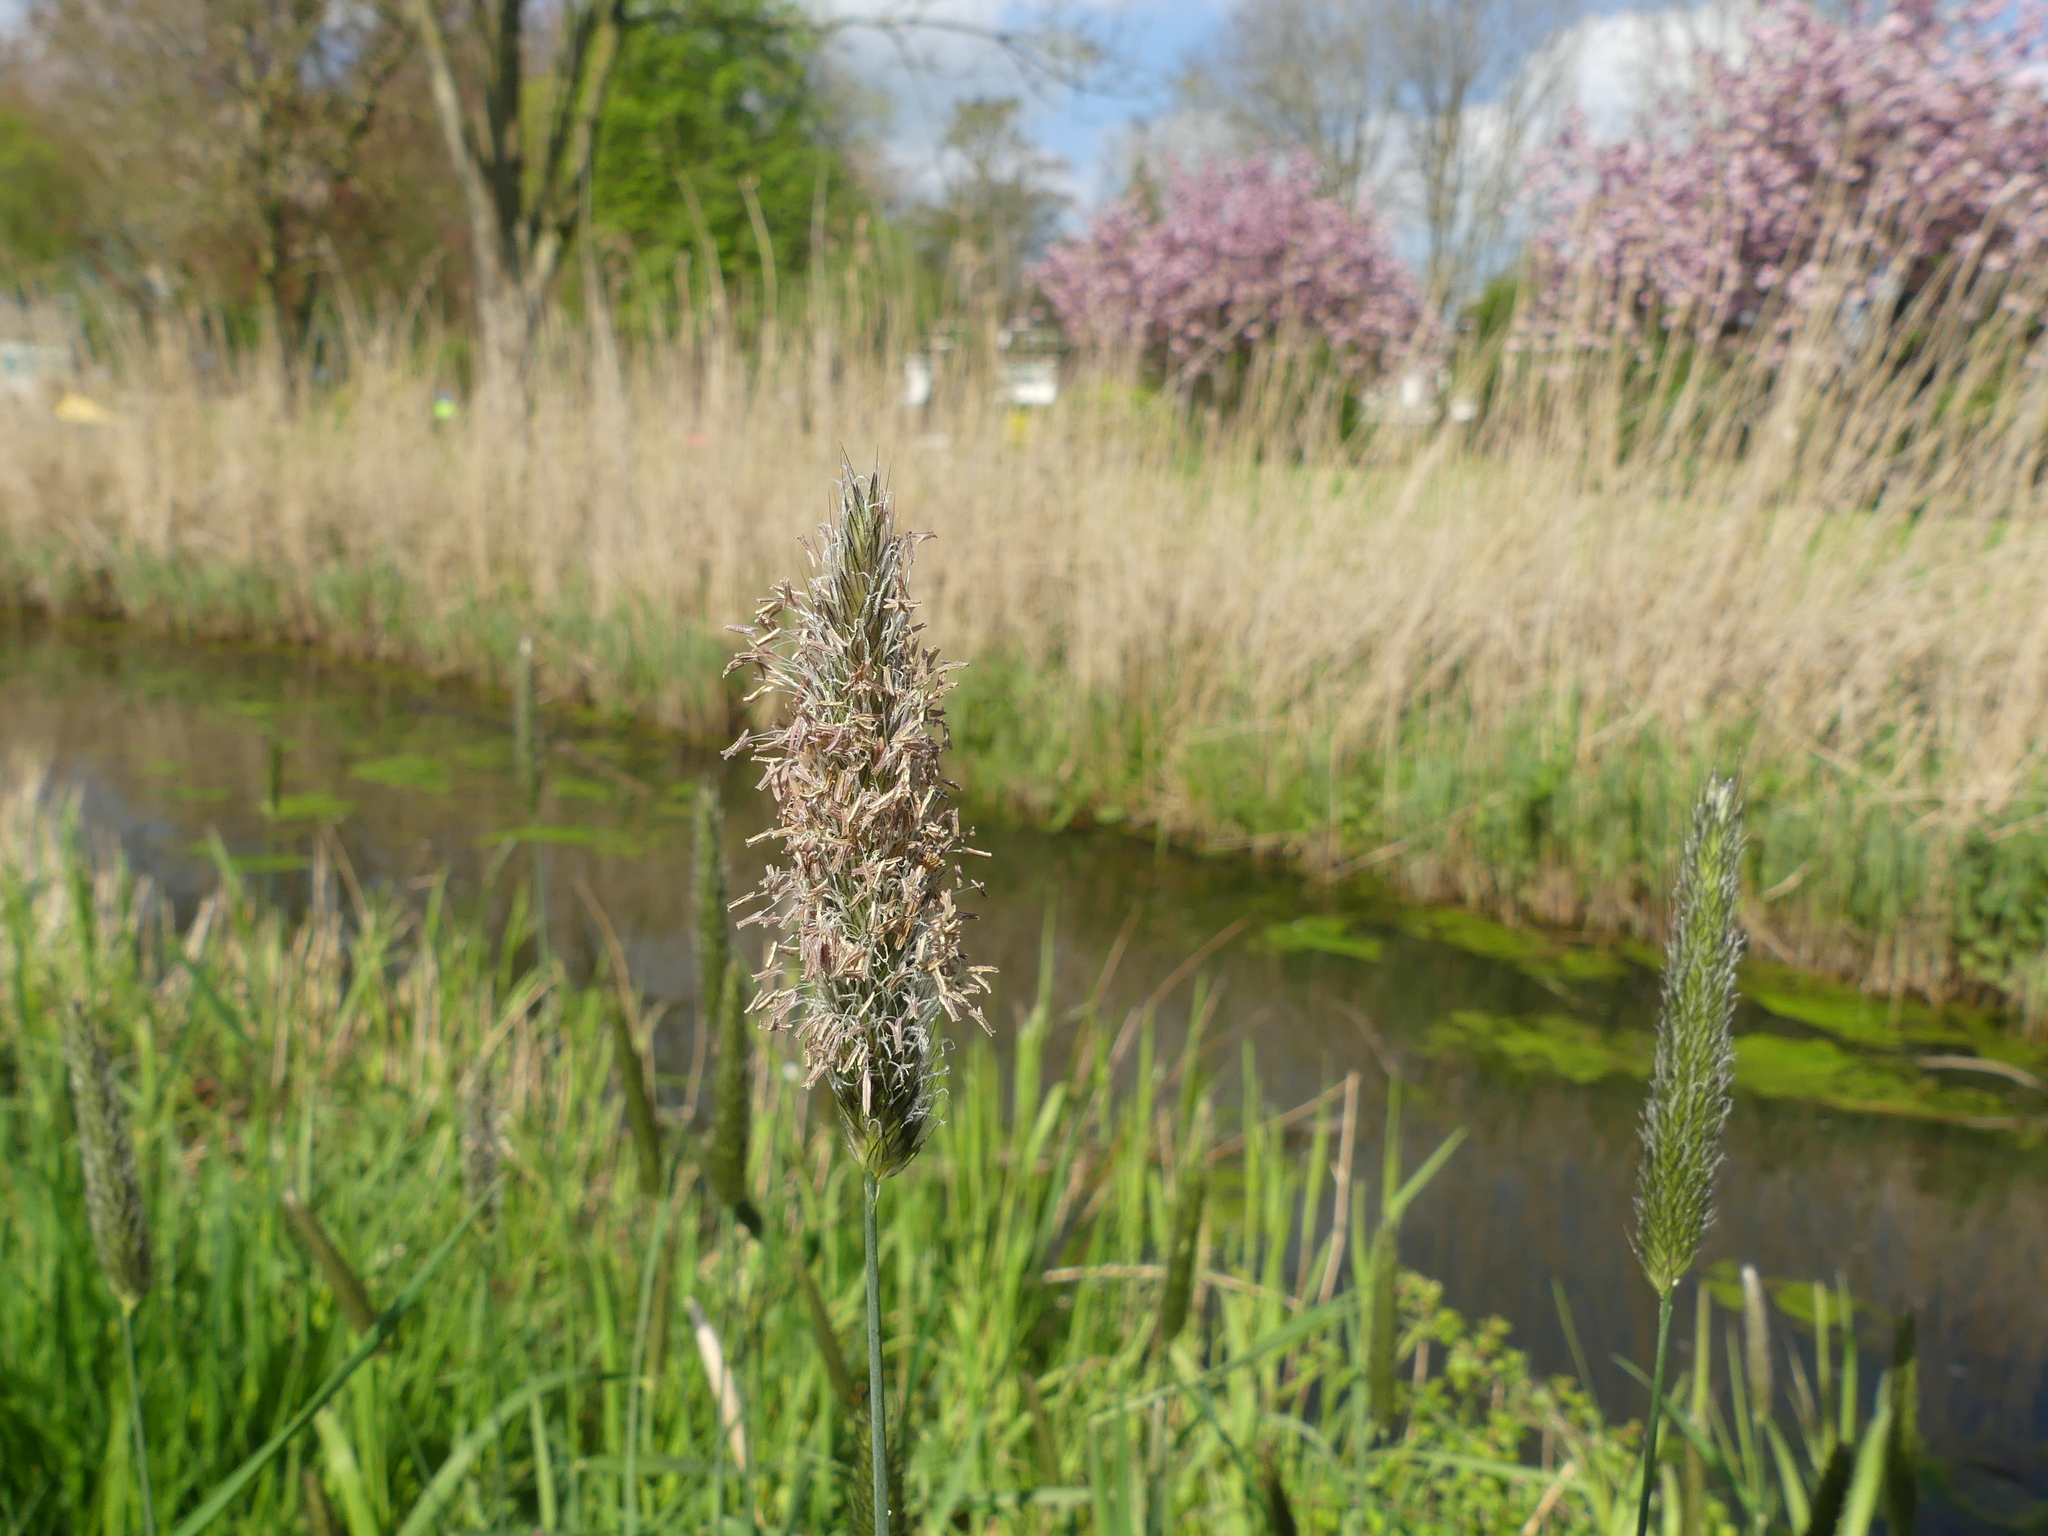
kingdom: Plantae
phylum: Tracheophyta
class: Liliopsida
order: Poales
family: Poaceae
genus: Alopecurus
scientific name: Alopecurus pratensis
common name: Meadow foxtail
